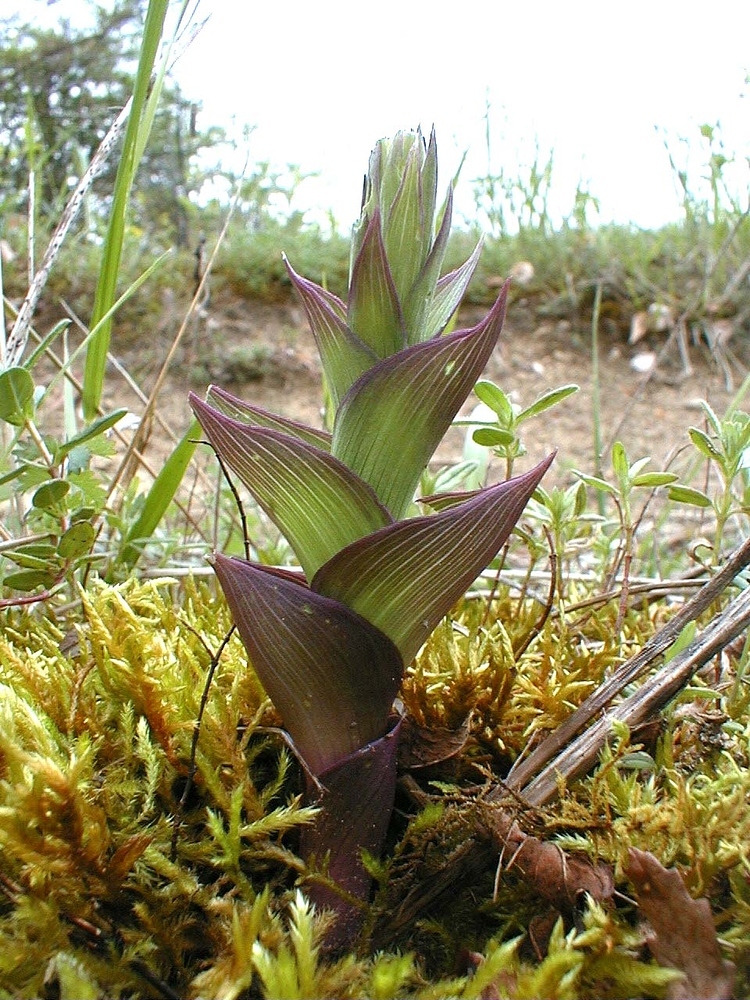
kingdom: Plantae
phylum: Tracheophyta
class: Liliopsida
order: Asparagales
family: Orchidaceae
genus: Epipactis
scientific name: Epipactis atrorubens
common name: Dark-red helleborine
